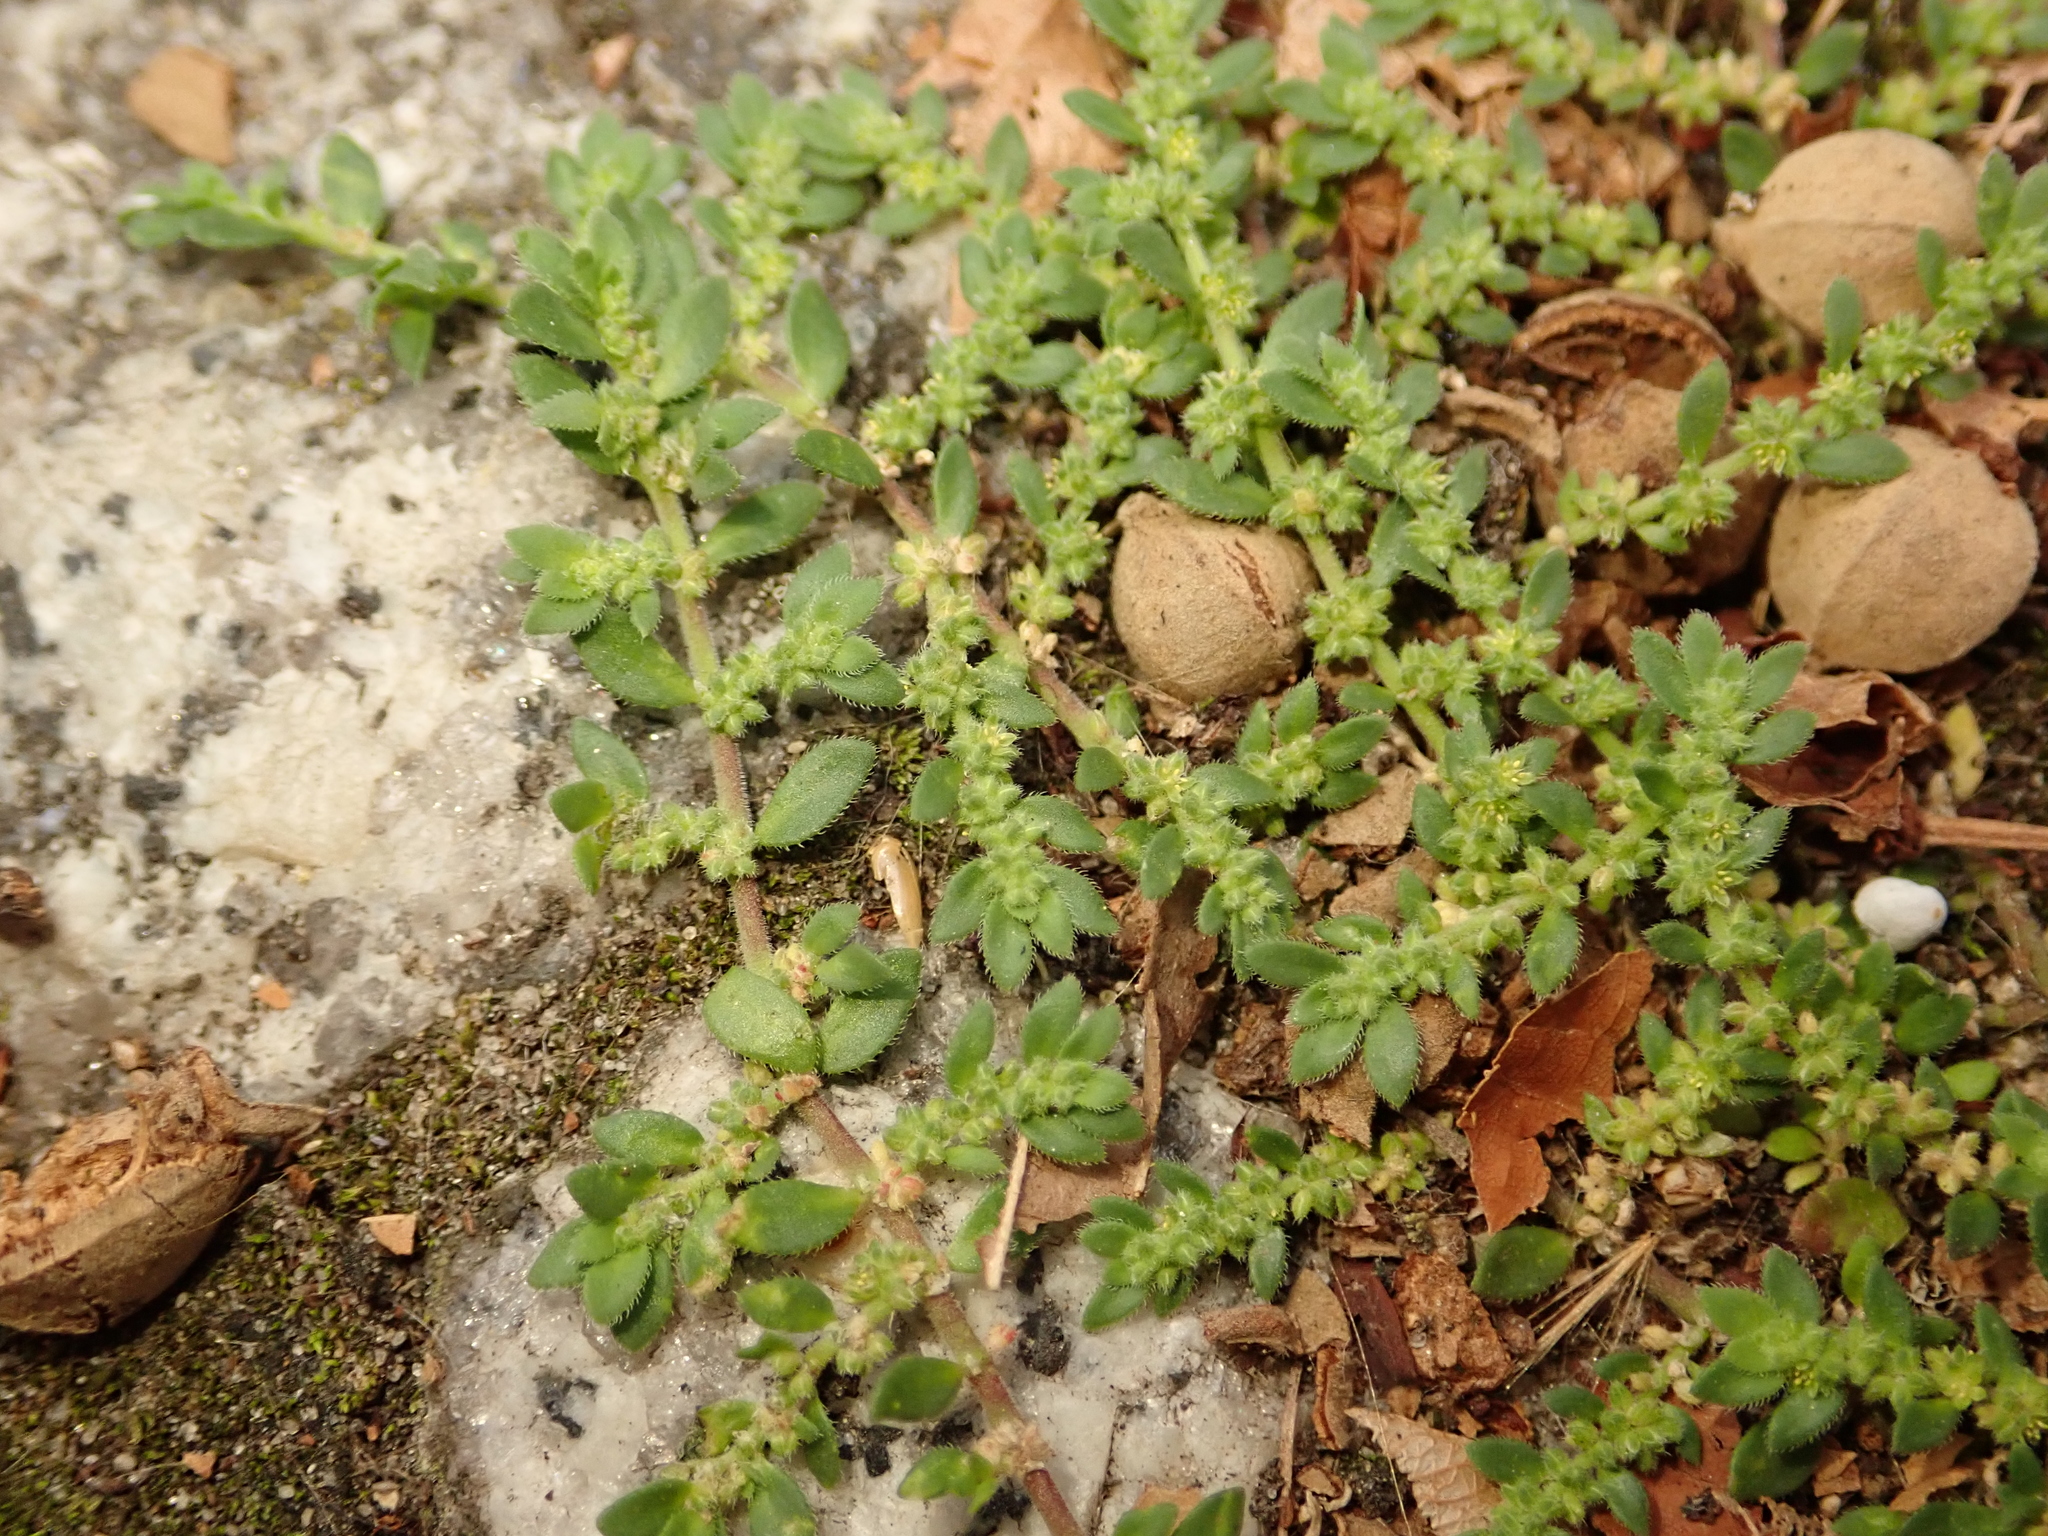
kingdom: Plantae
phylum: Tracheophyta
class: Magnoliopsida
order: Caryophyllales
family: Caryophyllaceae
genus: Herniaria
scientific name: Herniaria hirsuta
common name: Hairy rupturewort
